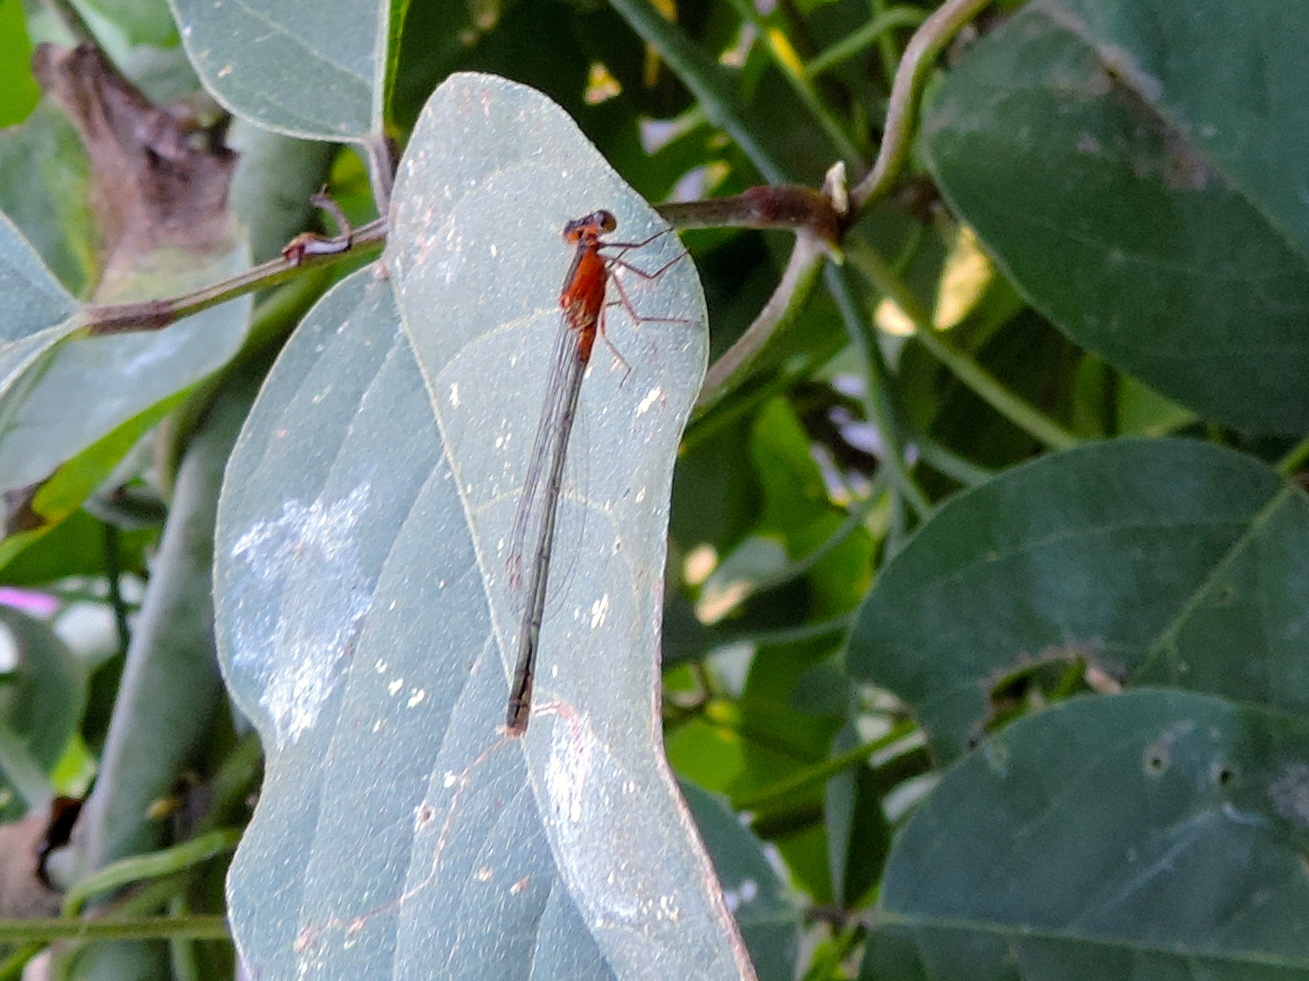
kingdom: Animalia
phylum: Arthropoda
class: Insecta
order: Odonata
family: Coenagrionidae
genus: Ischnura
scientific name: Ischnura ramburii
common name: Rambur's forktail
